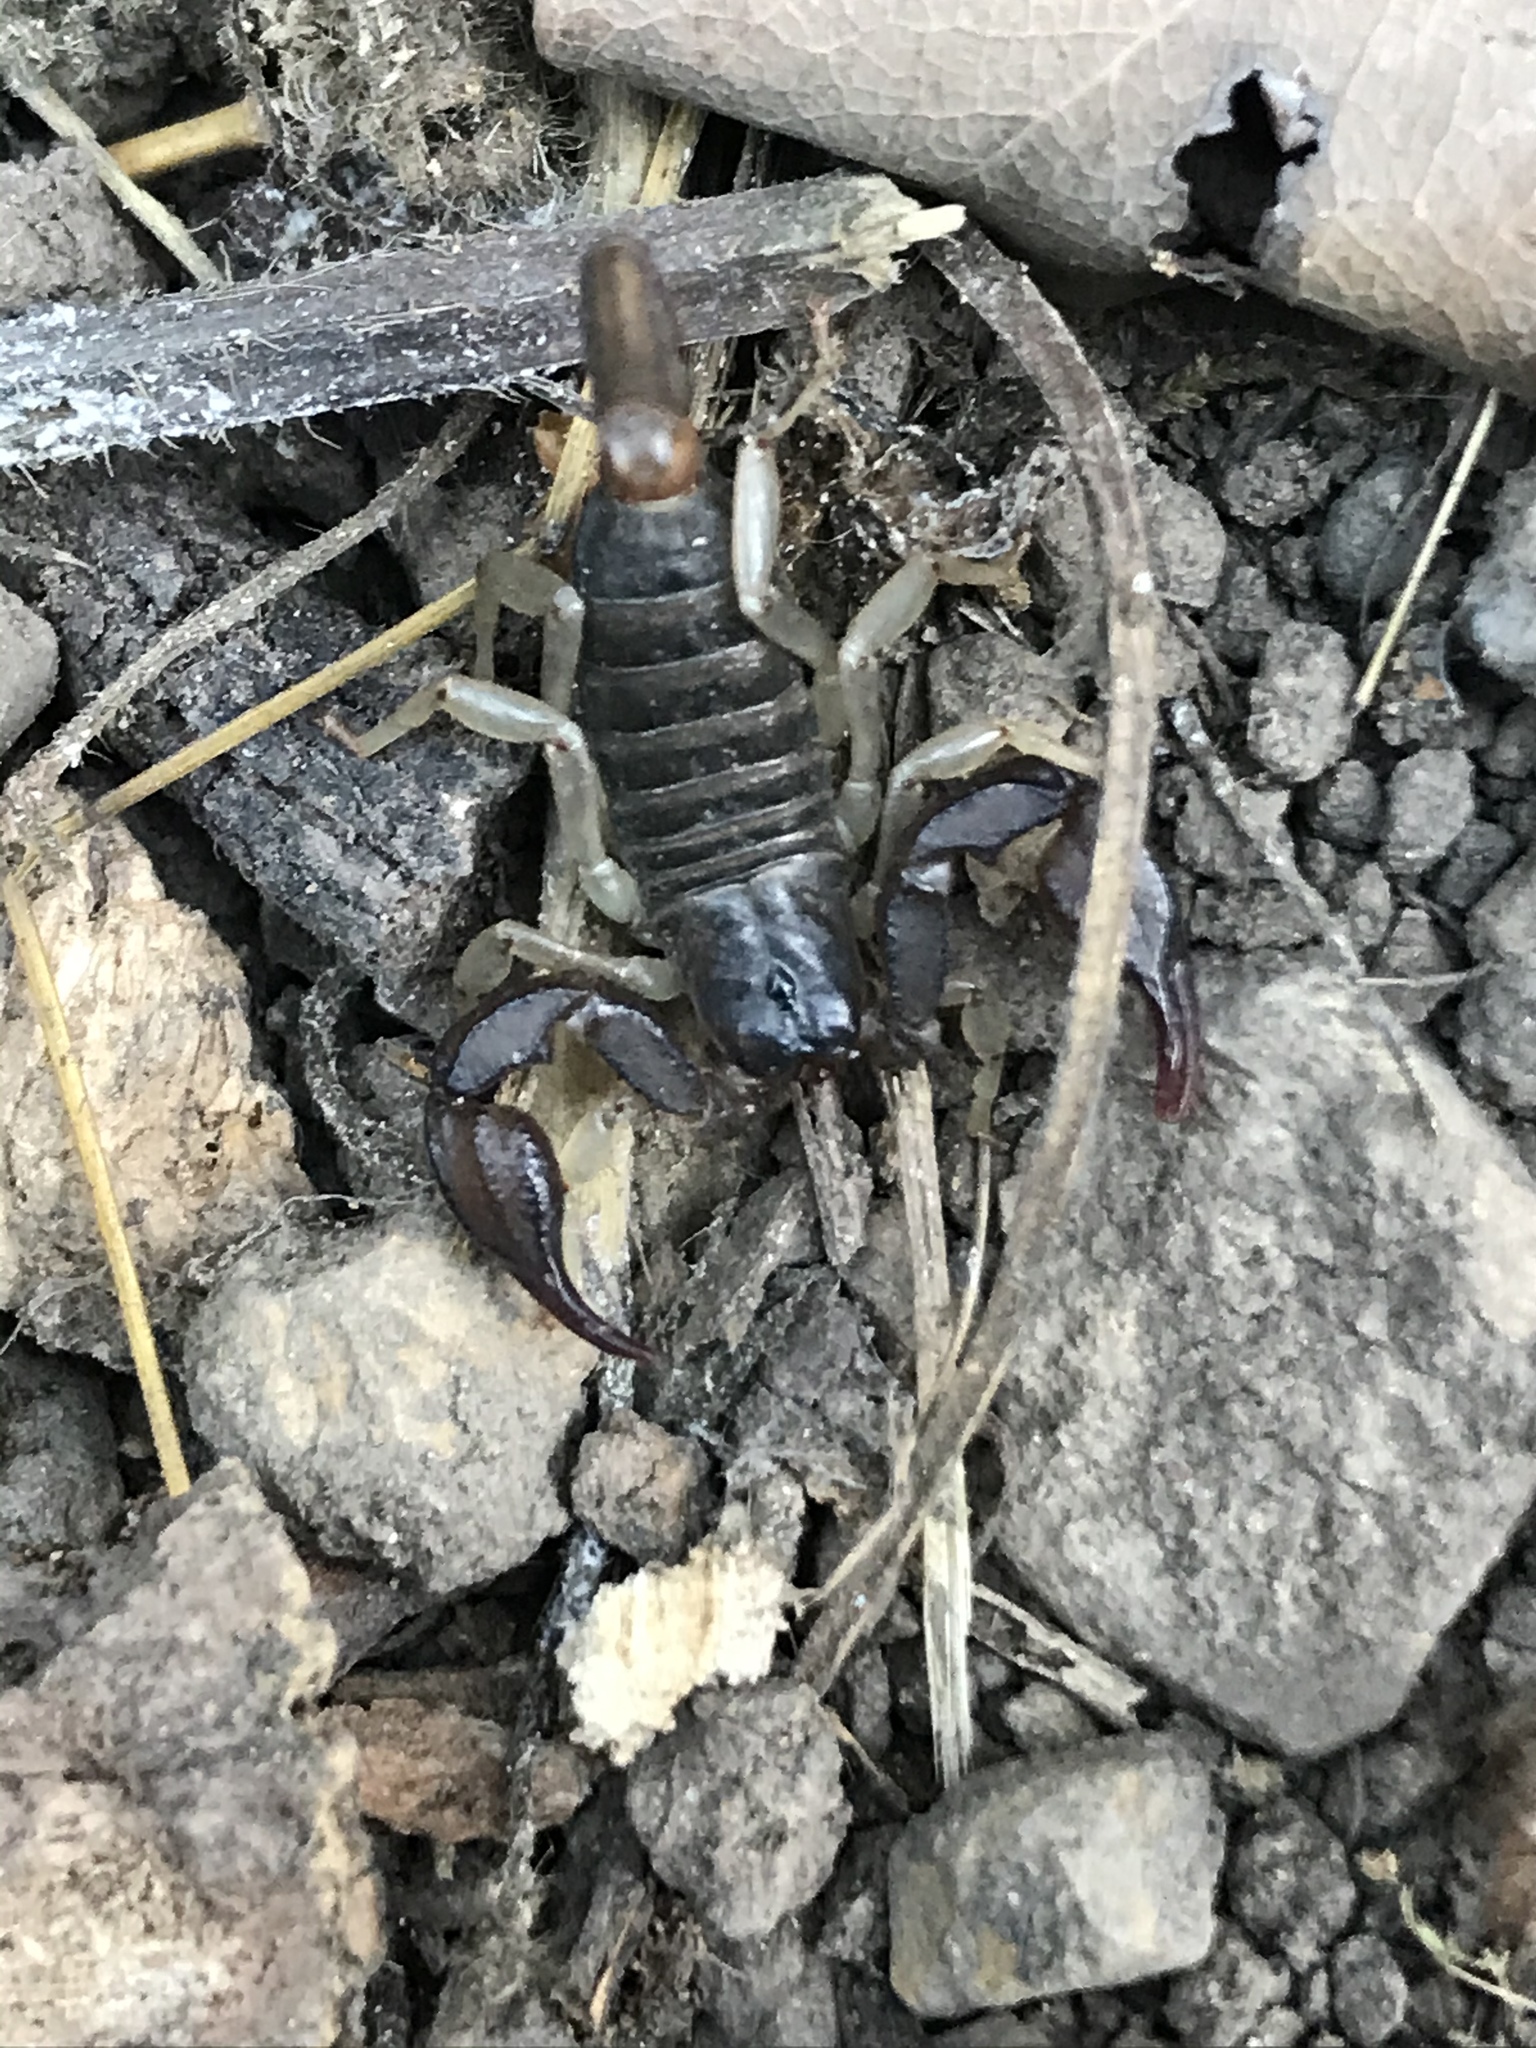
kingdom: Animalia
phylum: Arthropoda
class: Arachnida
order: Scorpiones
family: Chactidae
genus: Uroctonus
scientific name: Uroctonus mordax
